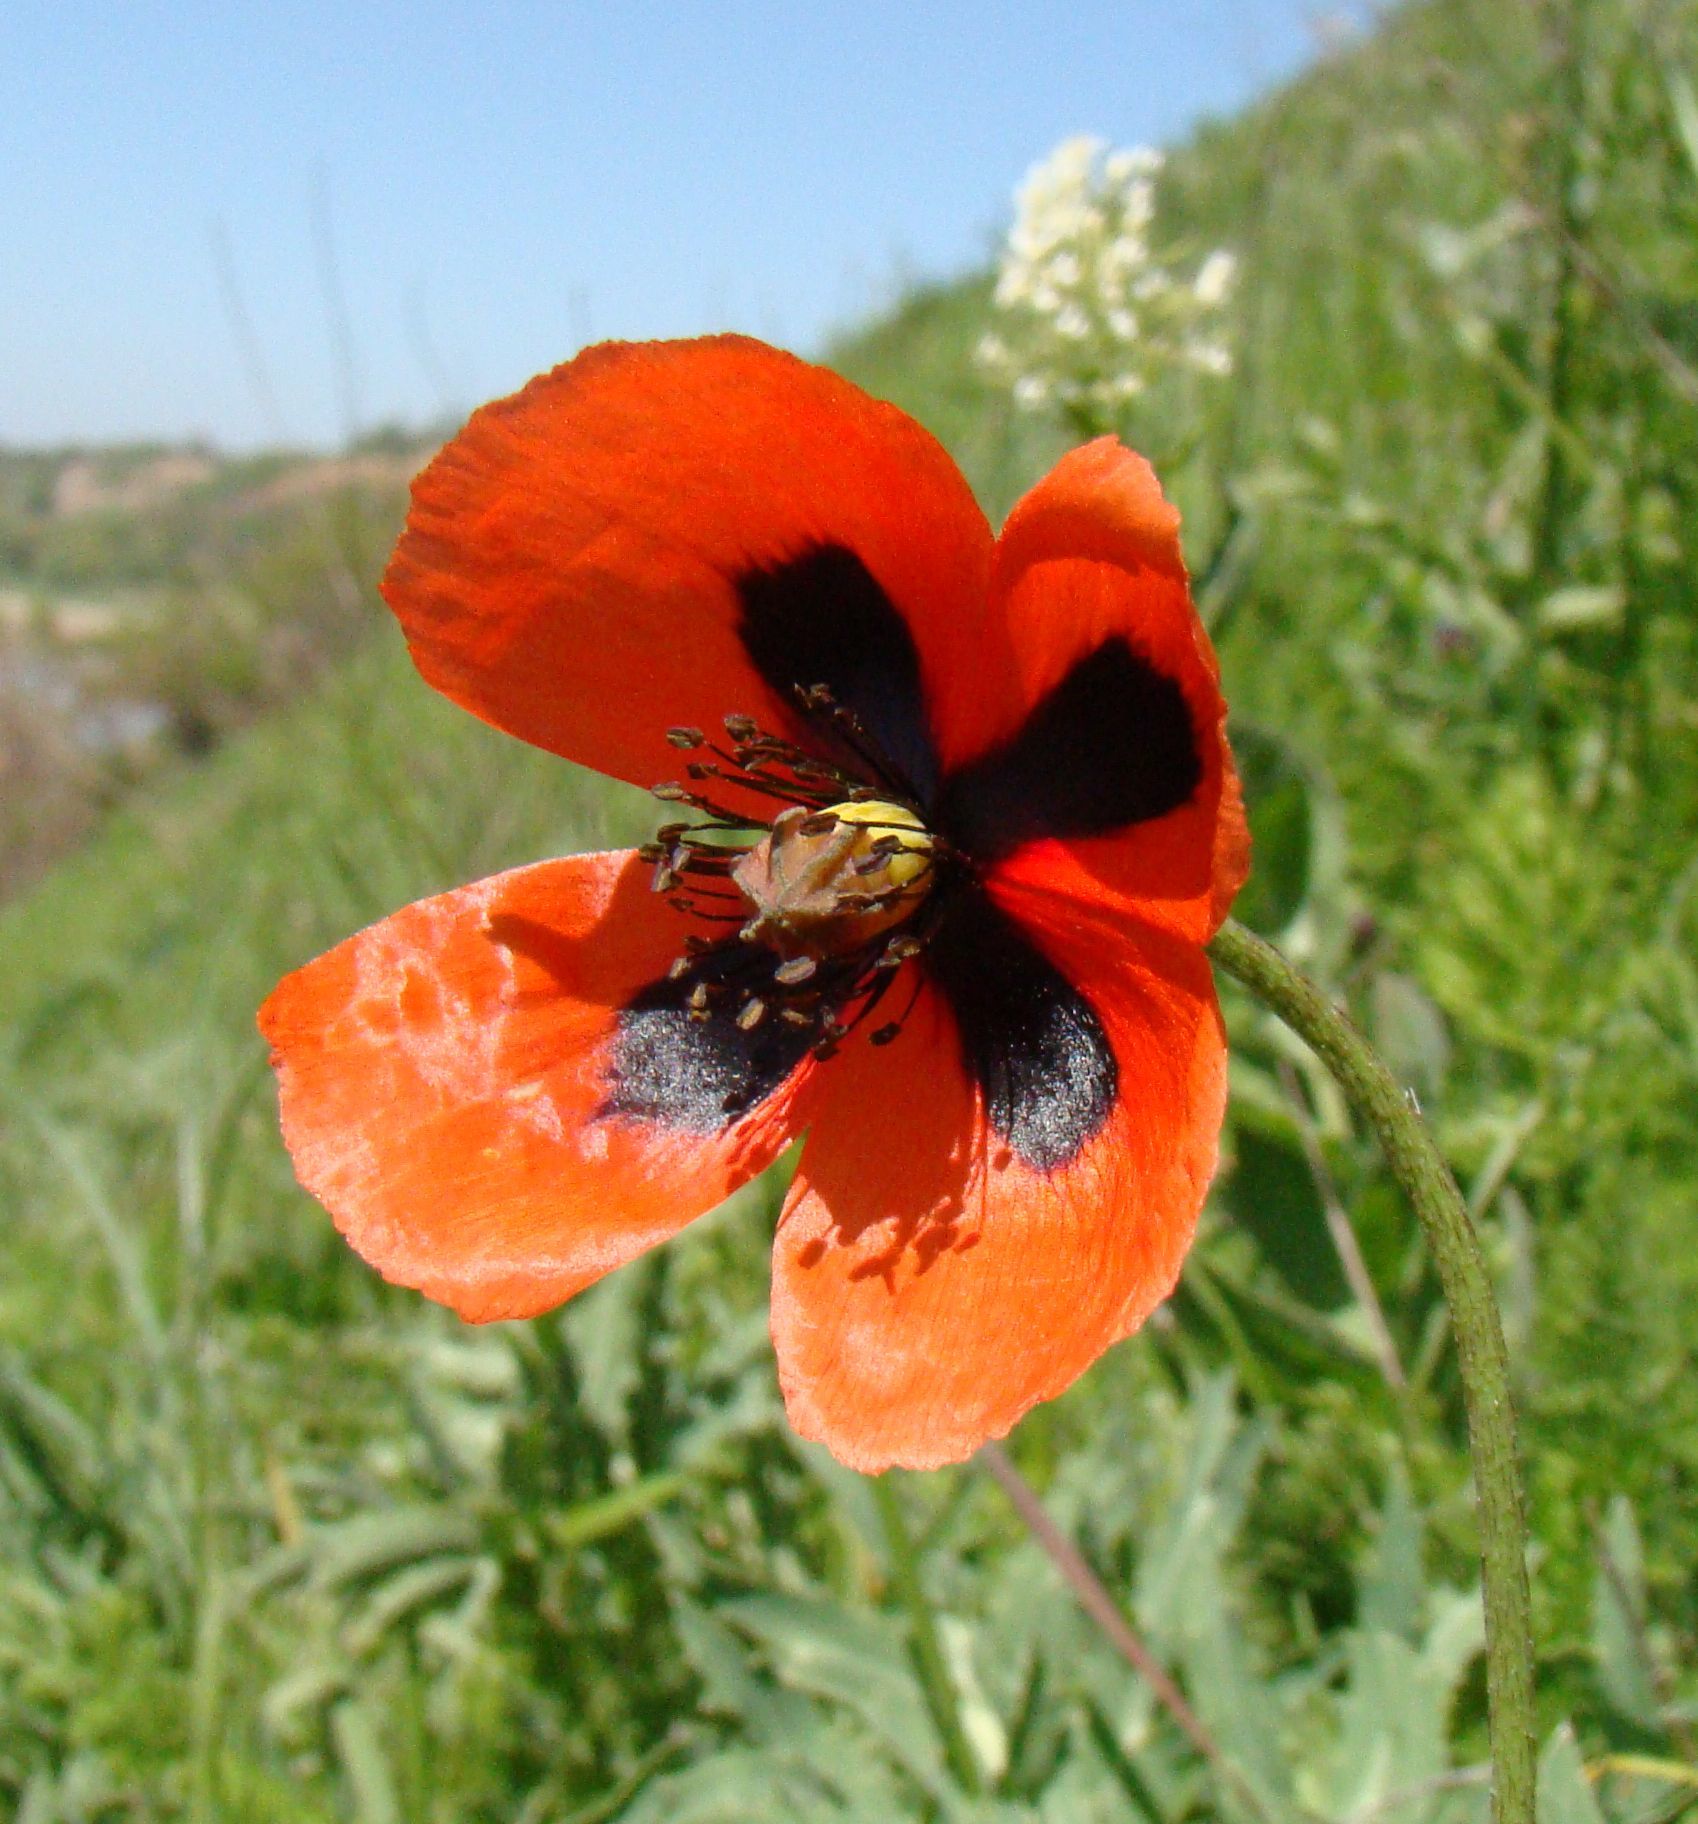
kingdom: Plantae
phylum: Tracheophyta
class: Magnoliopsida
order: Ranunculales
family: Papaveraceae
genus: Papaver
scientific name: Papaver dubium
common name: Long-headed poppy
